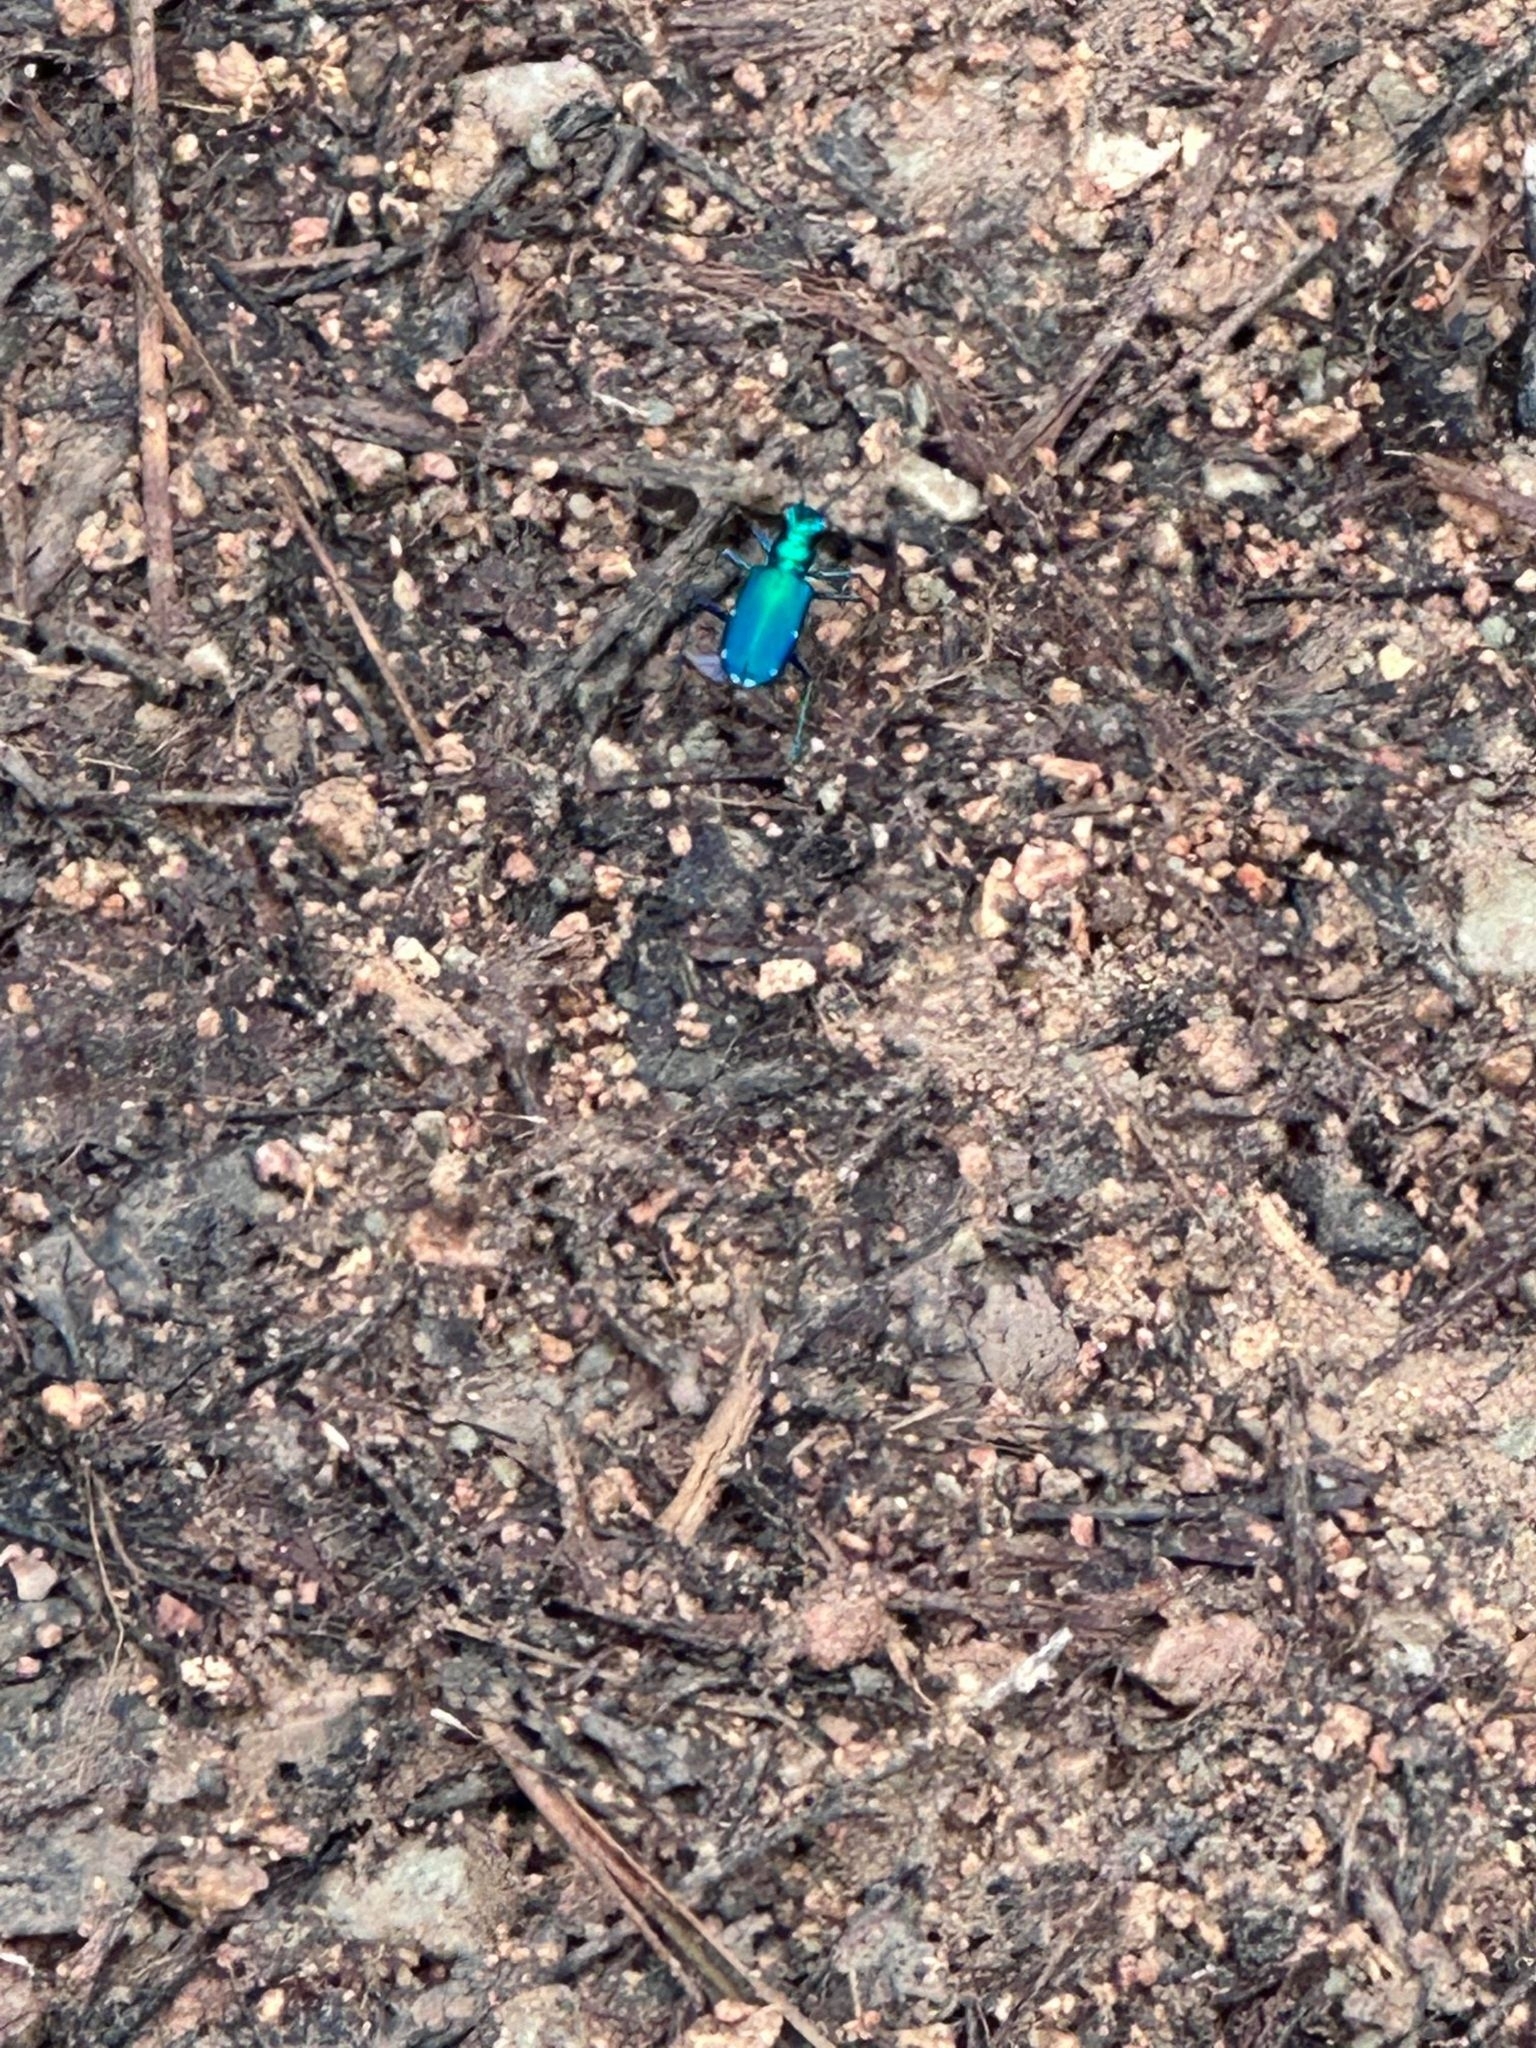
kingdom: Animalia
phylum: Arthropoda
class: Insecta
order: Coleoptera
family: Carabidae
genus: Cicindela
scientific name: Cicindela sexguttata
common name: Six-spotted tiger beetle
